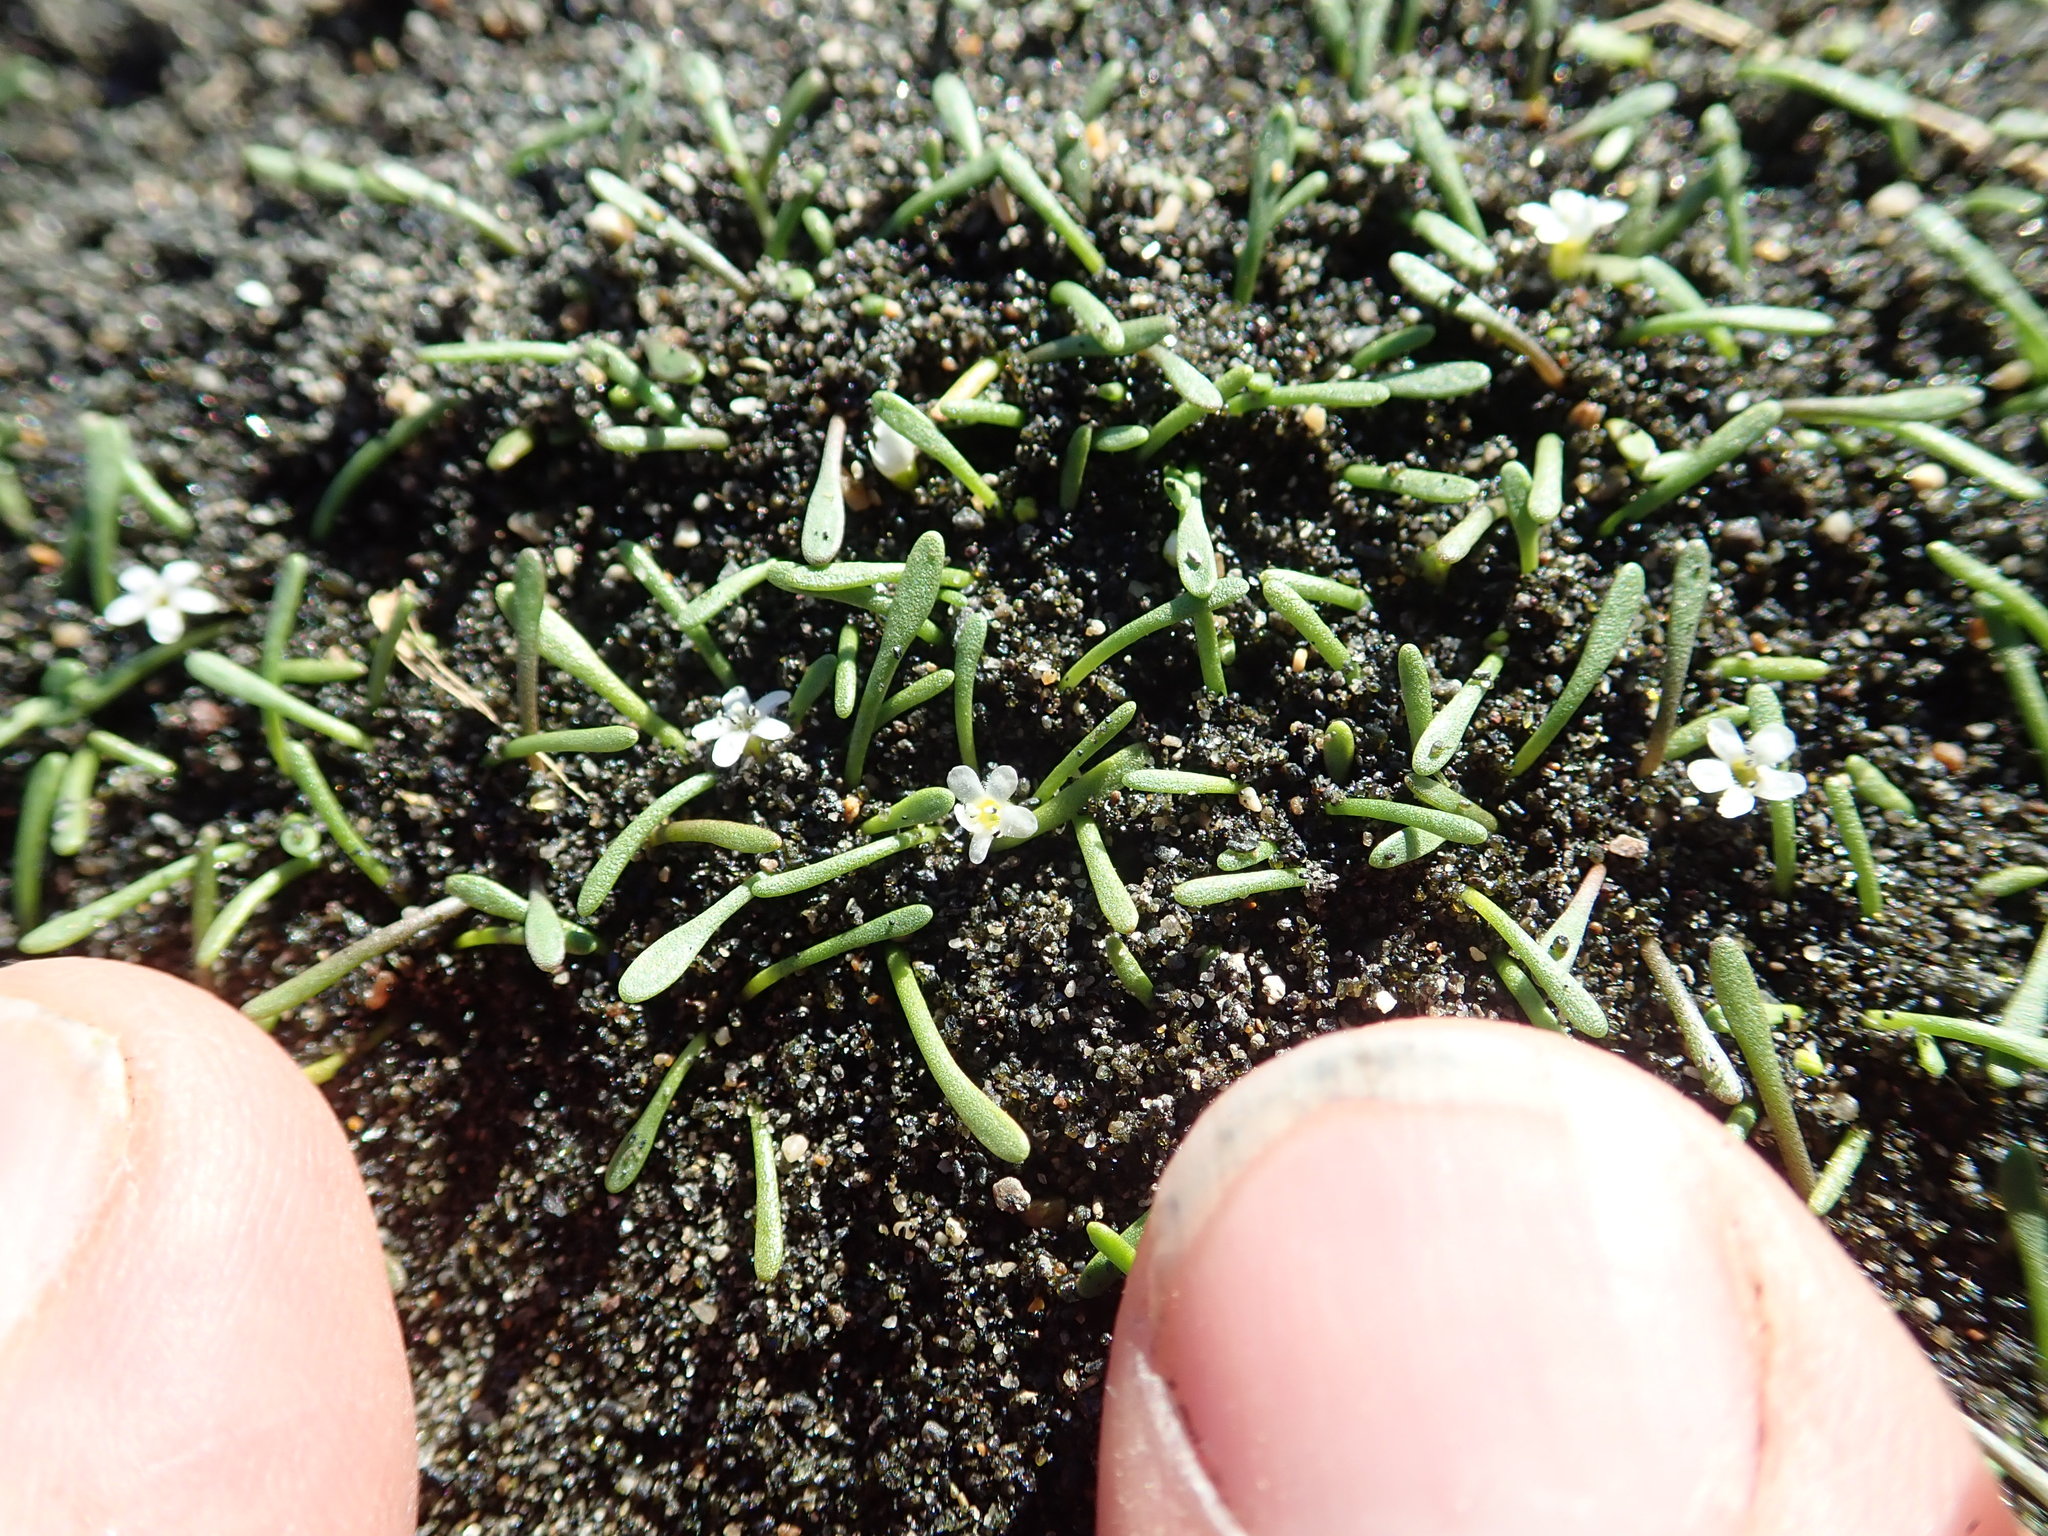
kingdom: Plantae
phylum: Tracheophyta
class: Magnoliopsida
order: Lamiales
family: Scrophulariaceae
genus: Limosella
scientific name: Limosella australis
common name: Welsh mudwort
